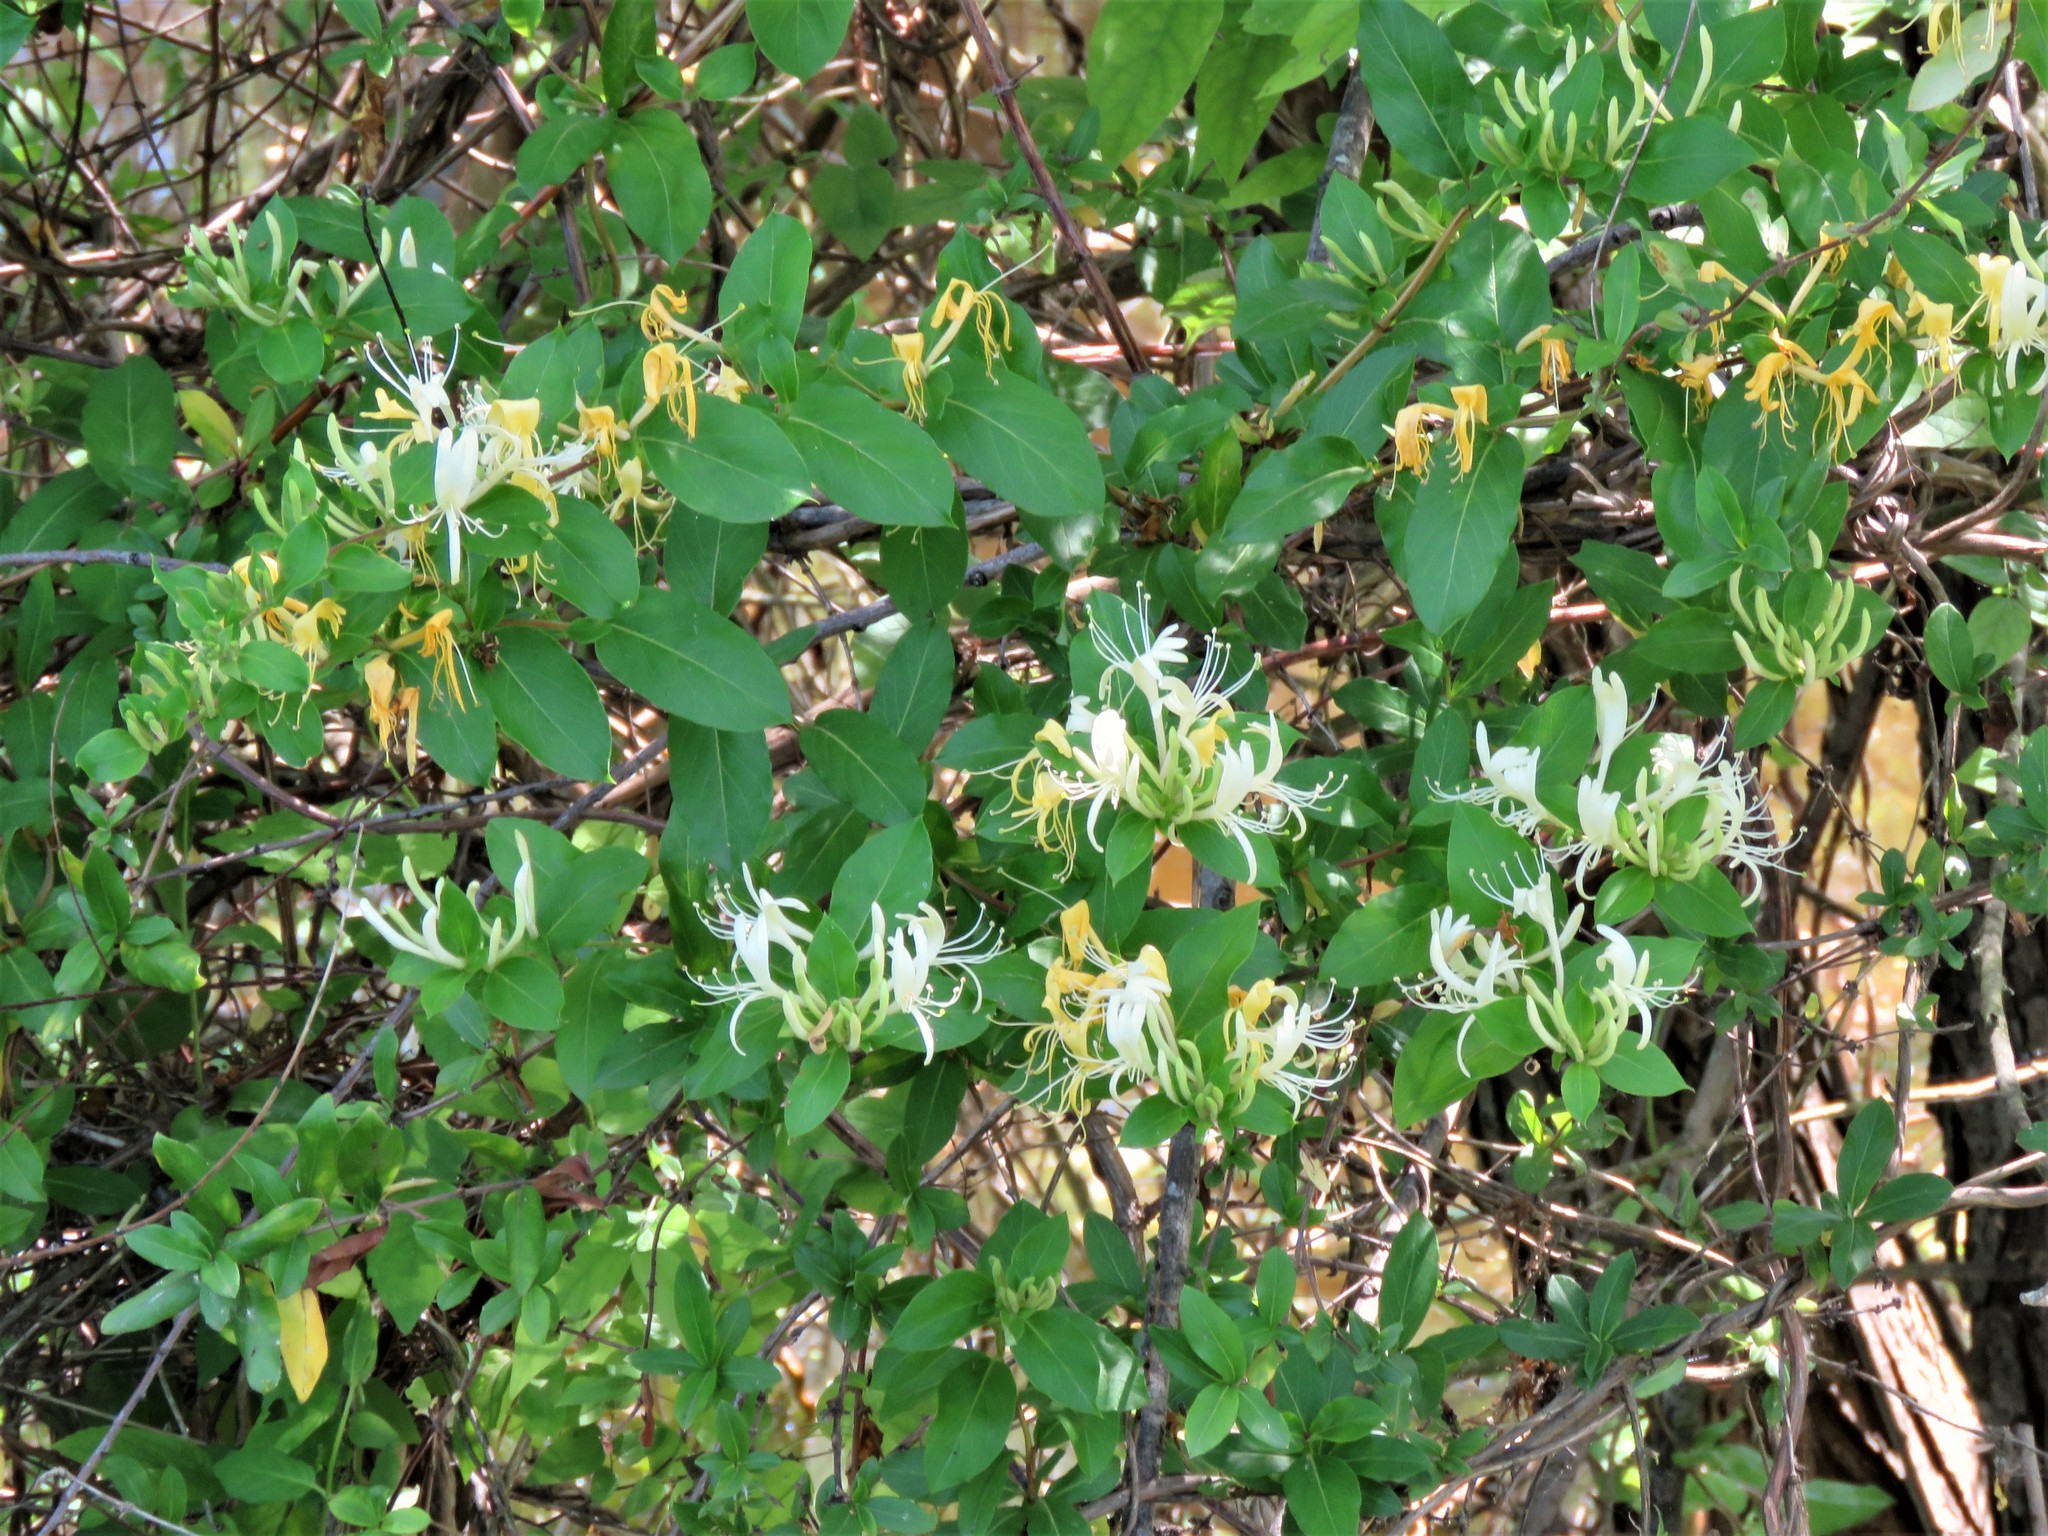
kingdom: Plantae
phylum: Tracheophyta
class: Magnoliopsida
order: Dipsacales
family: Caprifoliaceae
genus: Lonicera
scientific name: Lonicera japonica
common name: Japanese honeysuckle
